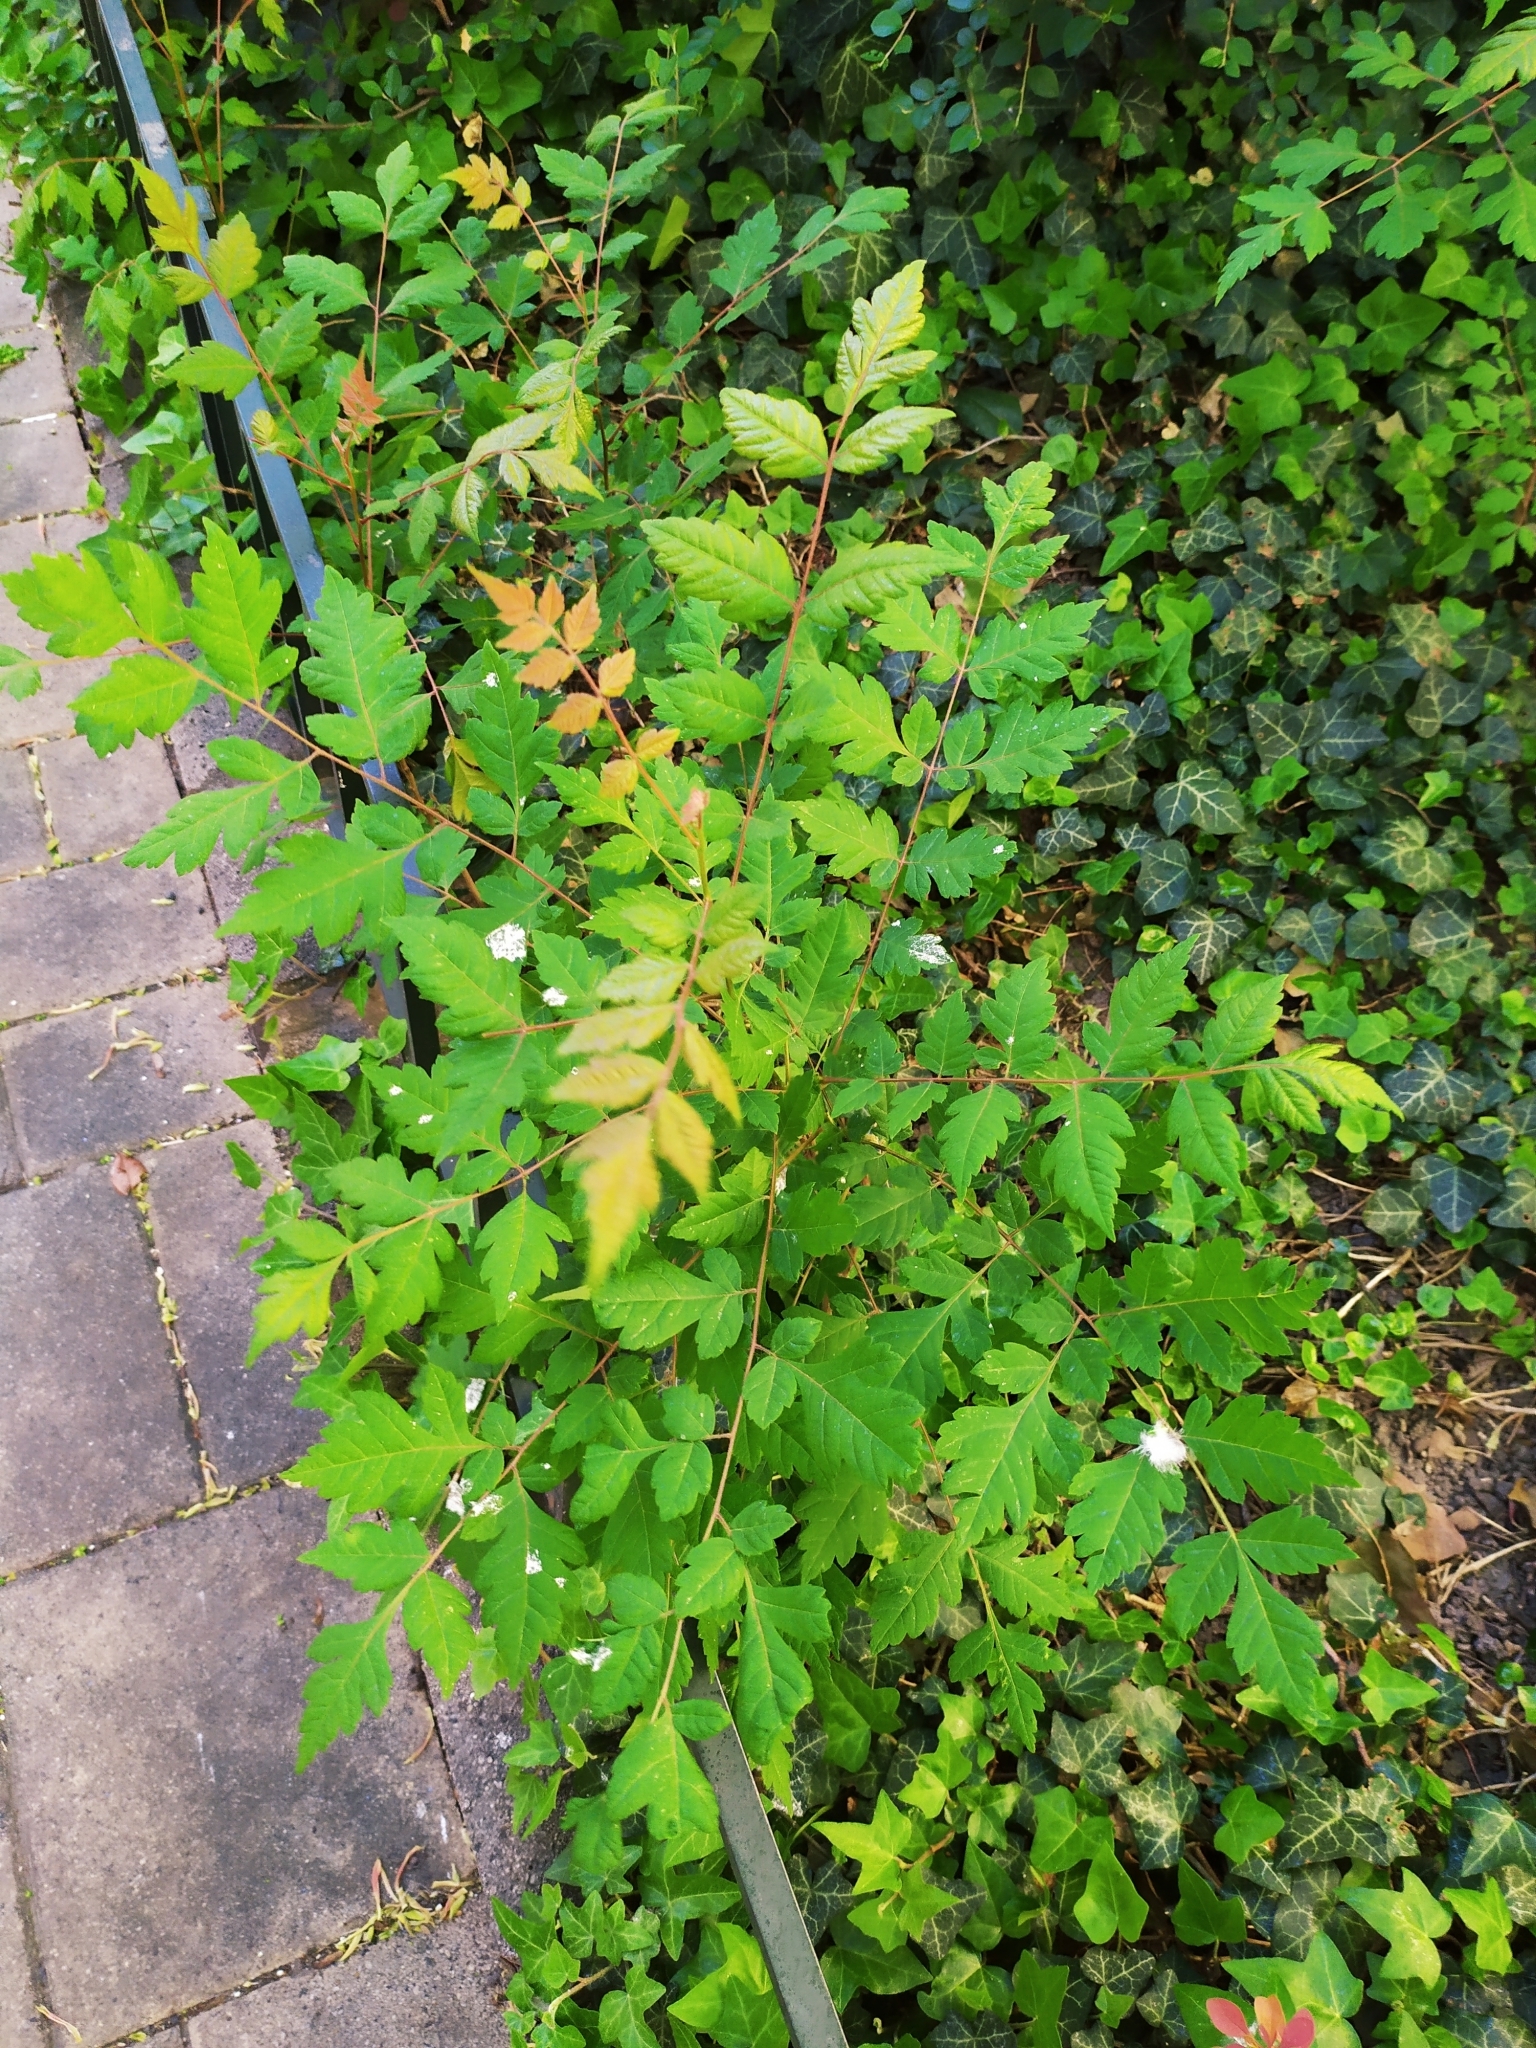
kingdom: Plantae
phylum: Tracheophyta
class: Magnoliopsida
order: Sapindales
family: Sapindaceae
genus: Koelreuteria
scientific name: Koelreuteria paniculata
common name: Pride-of-india
